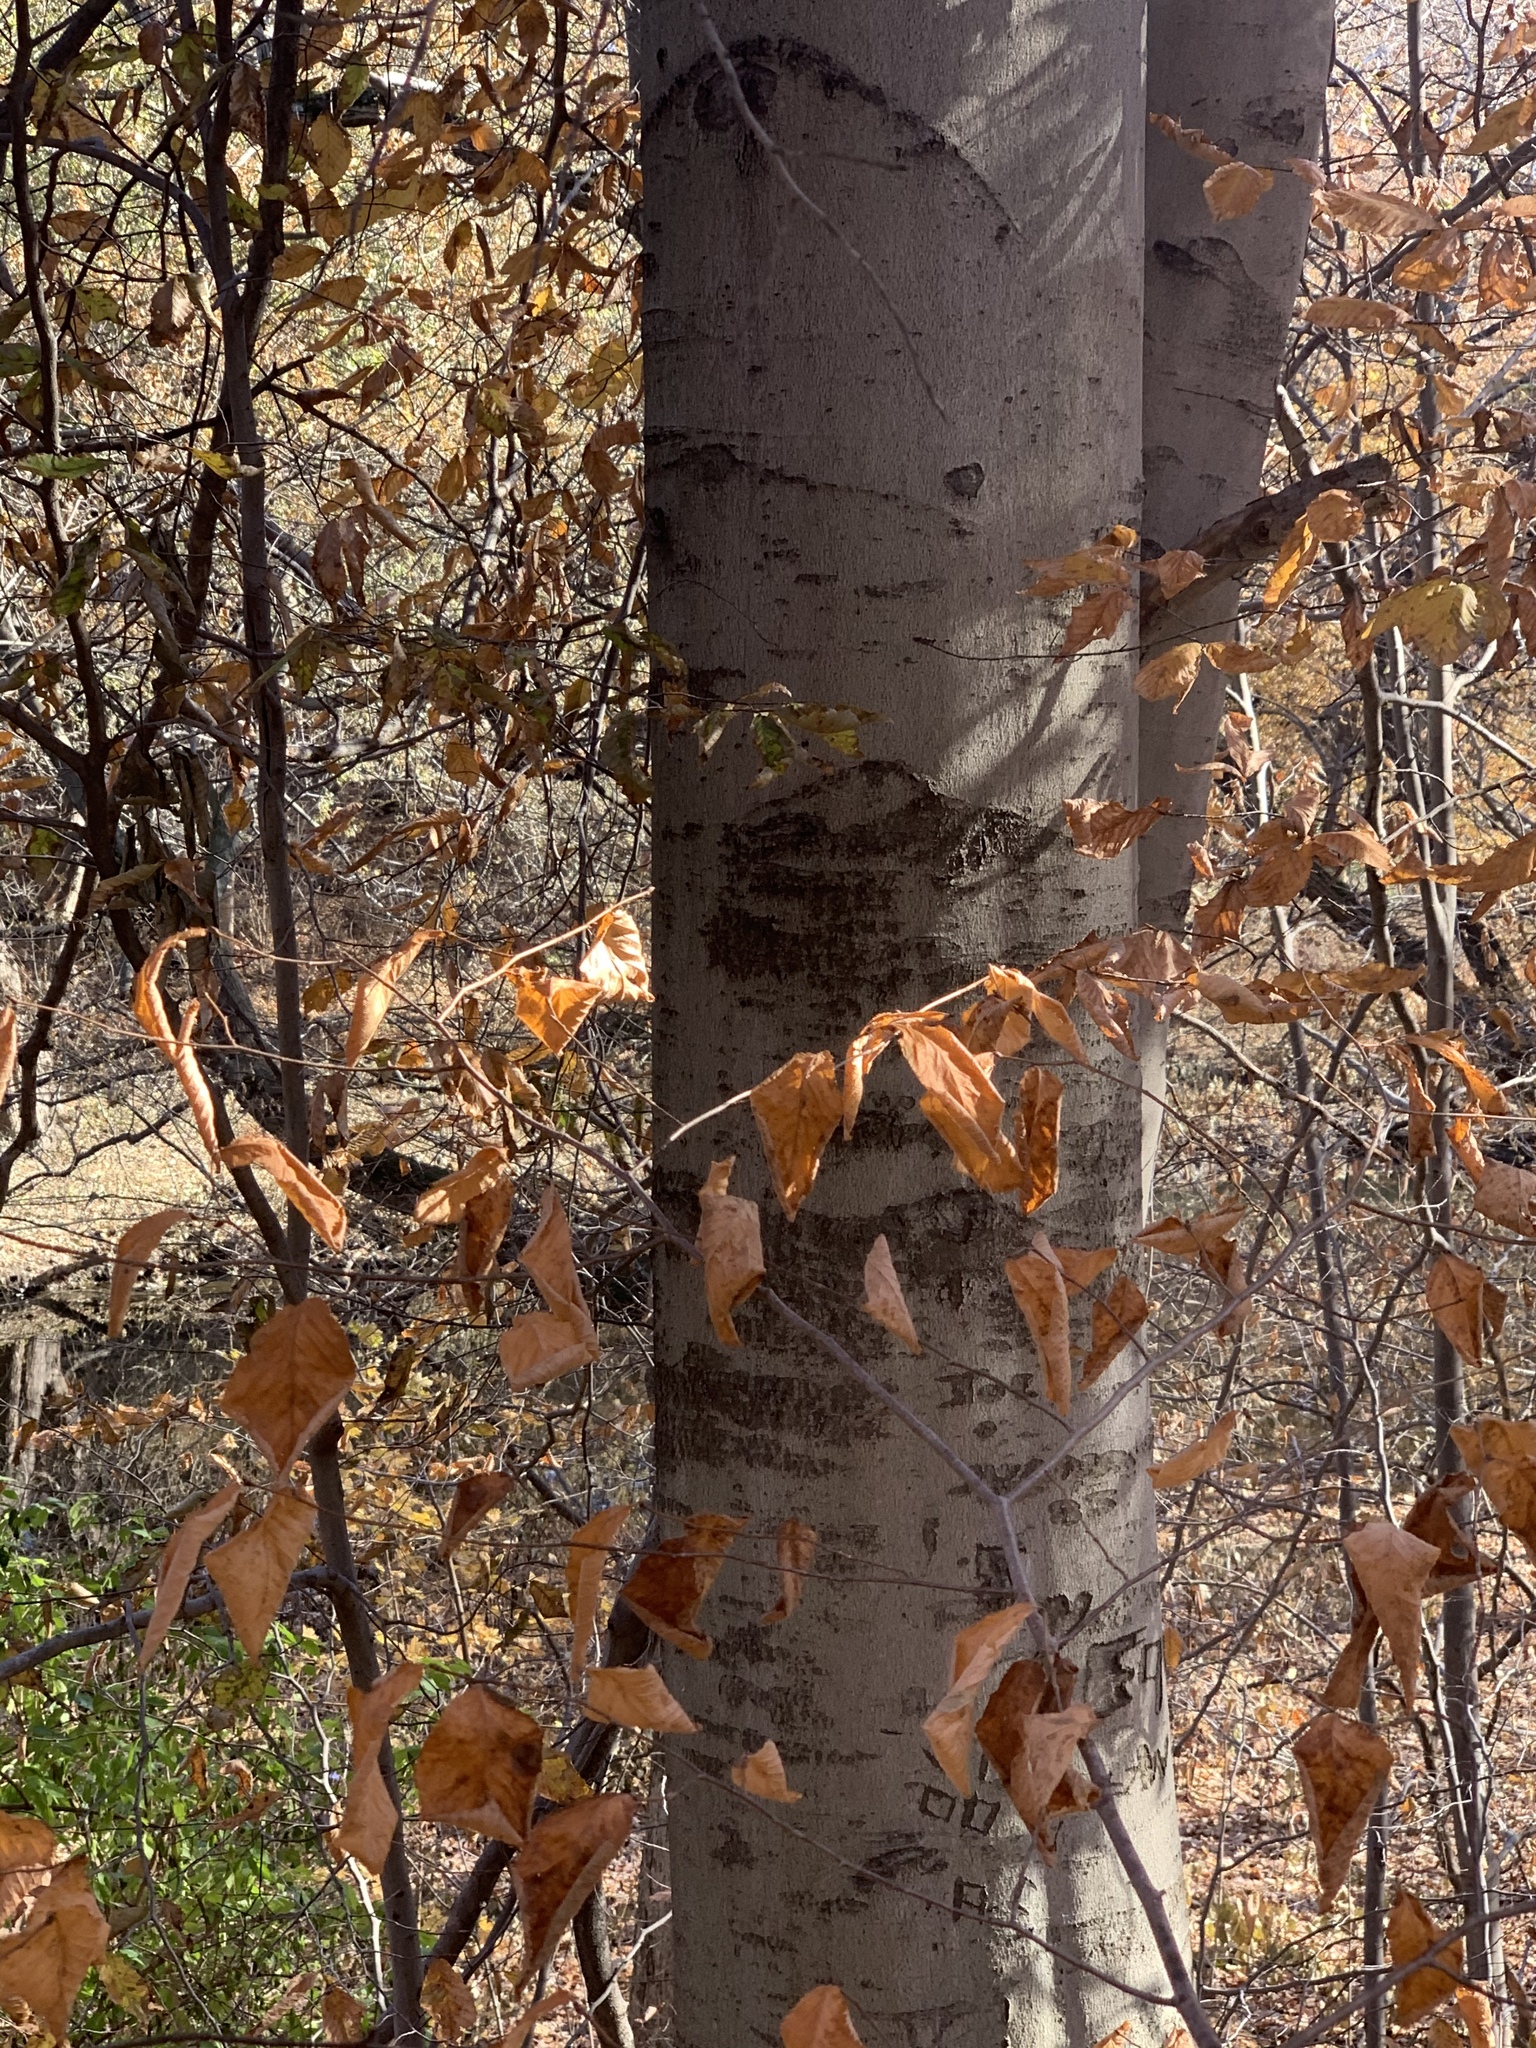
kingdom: Plantae
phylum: Tracheophyta
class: Magnoliopsida
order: Fagales
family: Fagaceae
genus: Fagus
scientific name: Fagus grandifolia
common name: American beech
